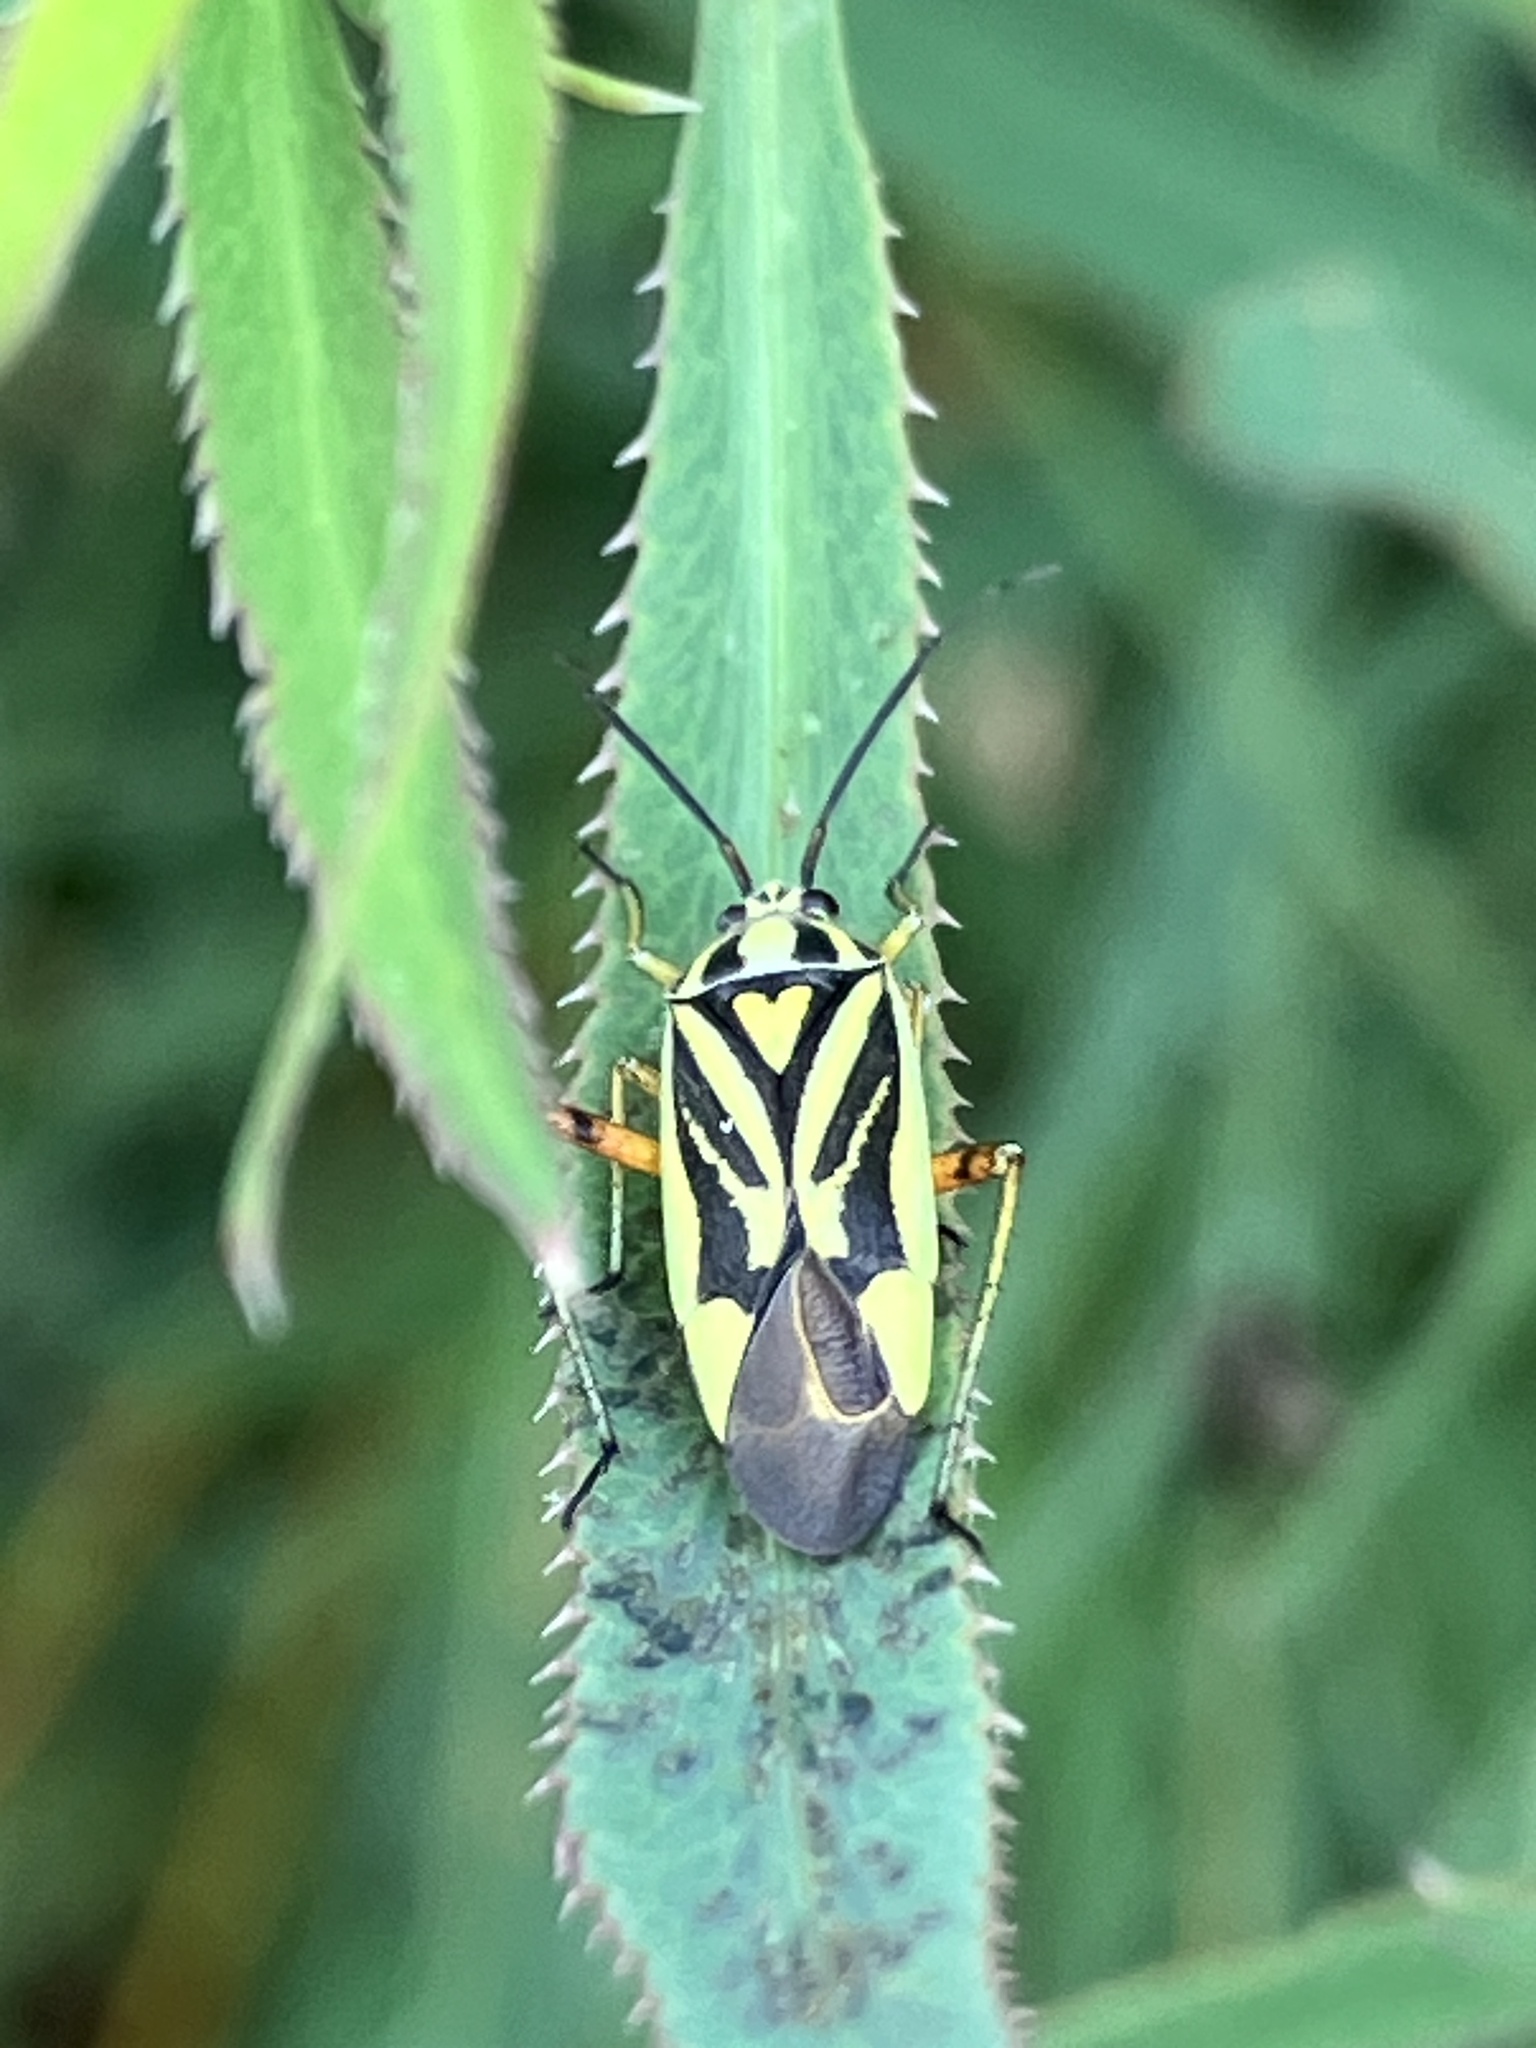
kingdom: Animalia
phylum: Arthropoda
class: Insecta
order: Hemiptera
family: Miridae
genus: Brachycoleus
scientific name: Brachycoleus decolor
